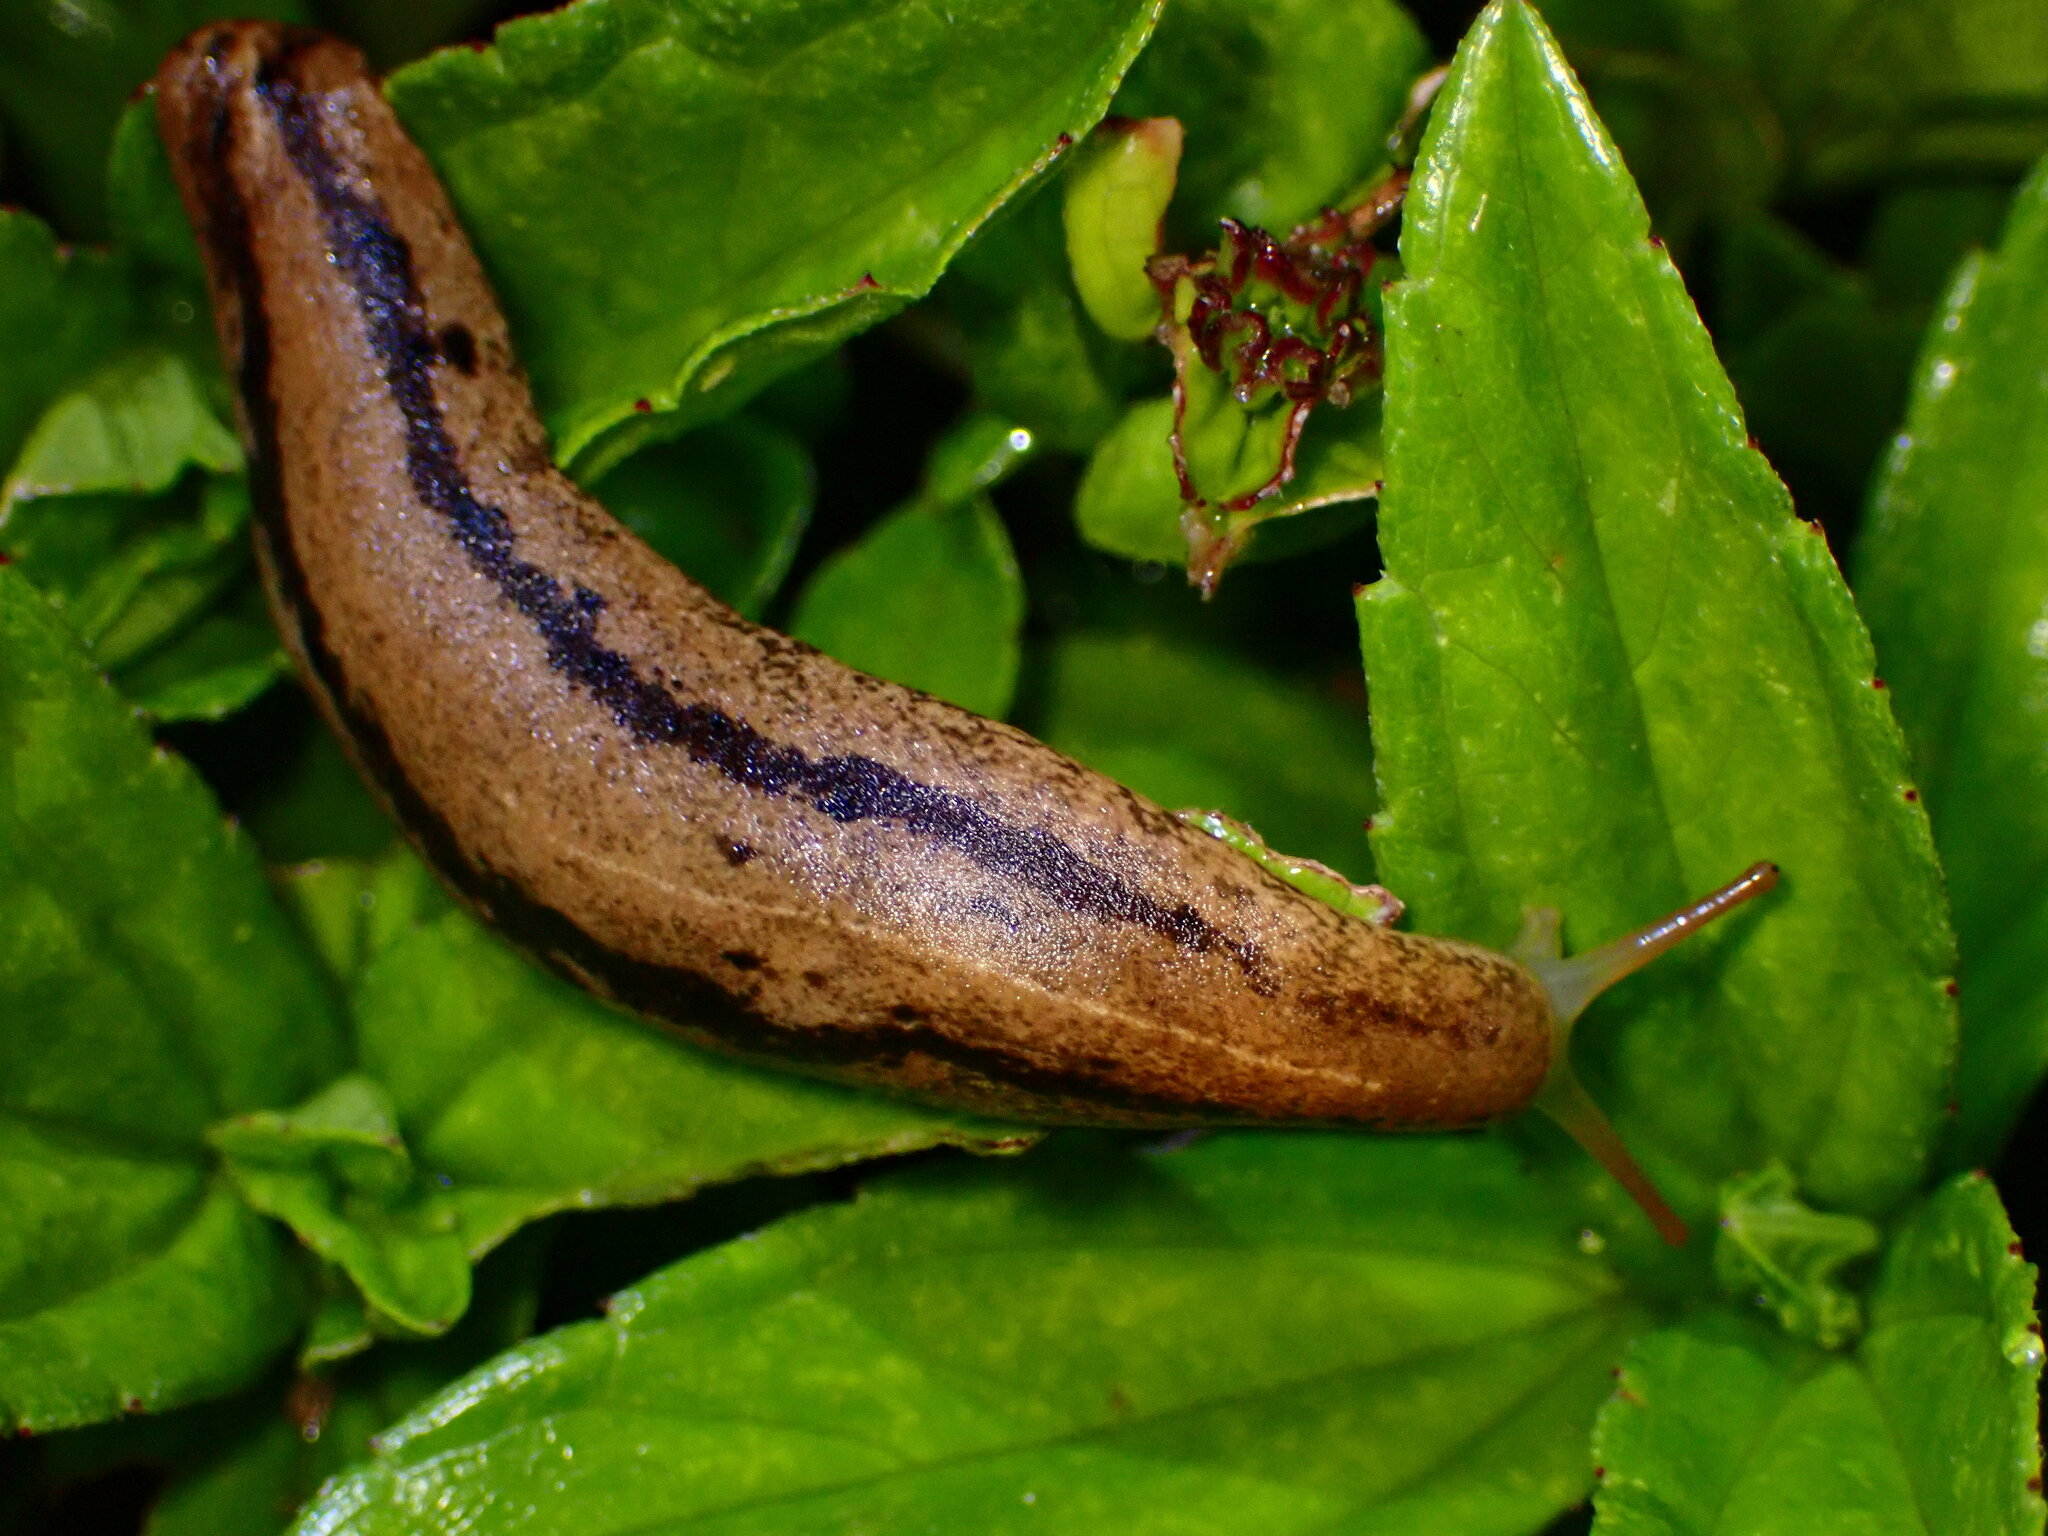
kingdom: Animalia
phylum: Mollusca
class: Gastropoda
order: Systellommatophora
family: Veronicellidae
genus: Veronicella
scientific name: Veronicella cubensis
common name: Two striped slug
